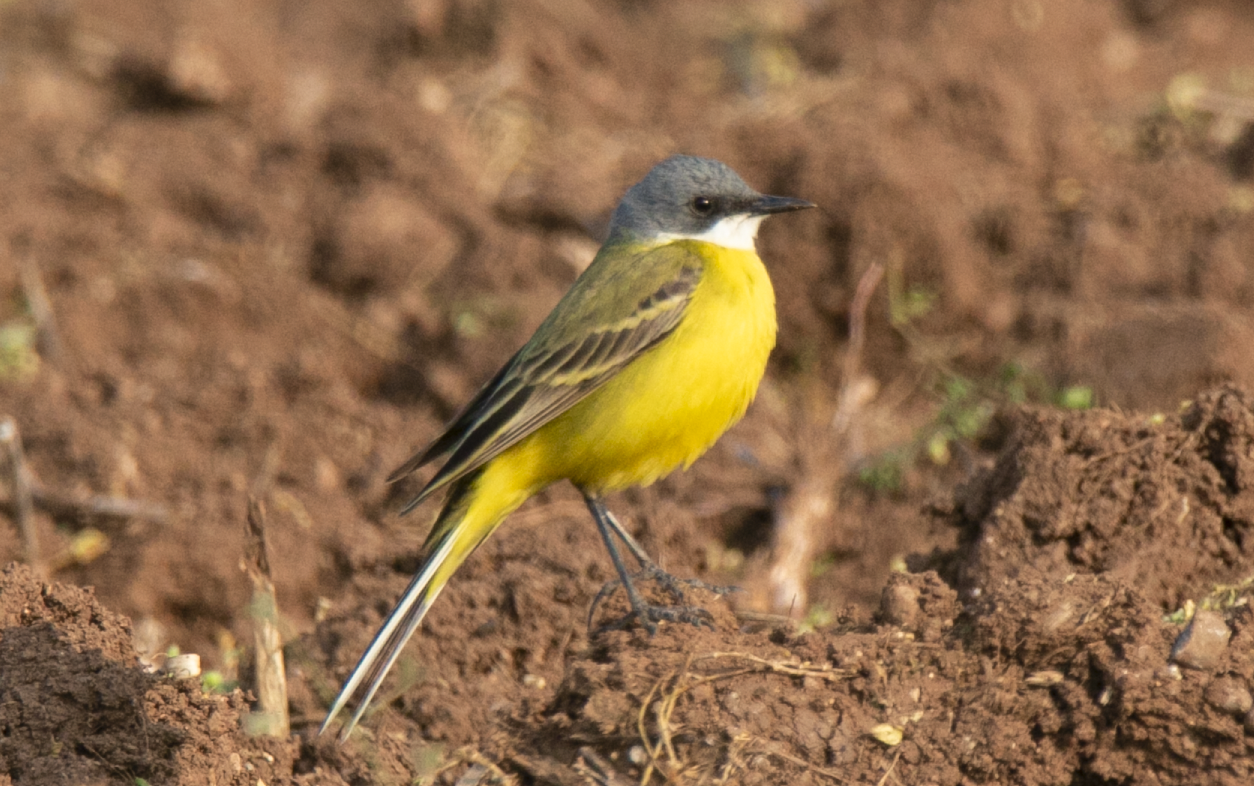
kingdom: Animalia
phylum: Chordata
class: Aves
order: Passeriformes
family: Motacillidae
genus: Motacilla
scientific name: Motacilla flava
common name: Western yellow wagtail
